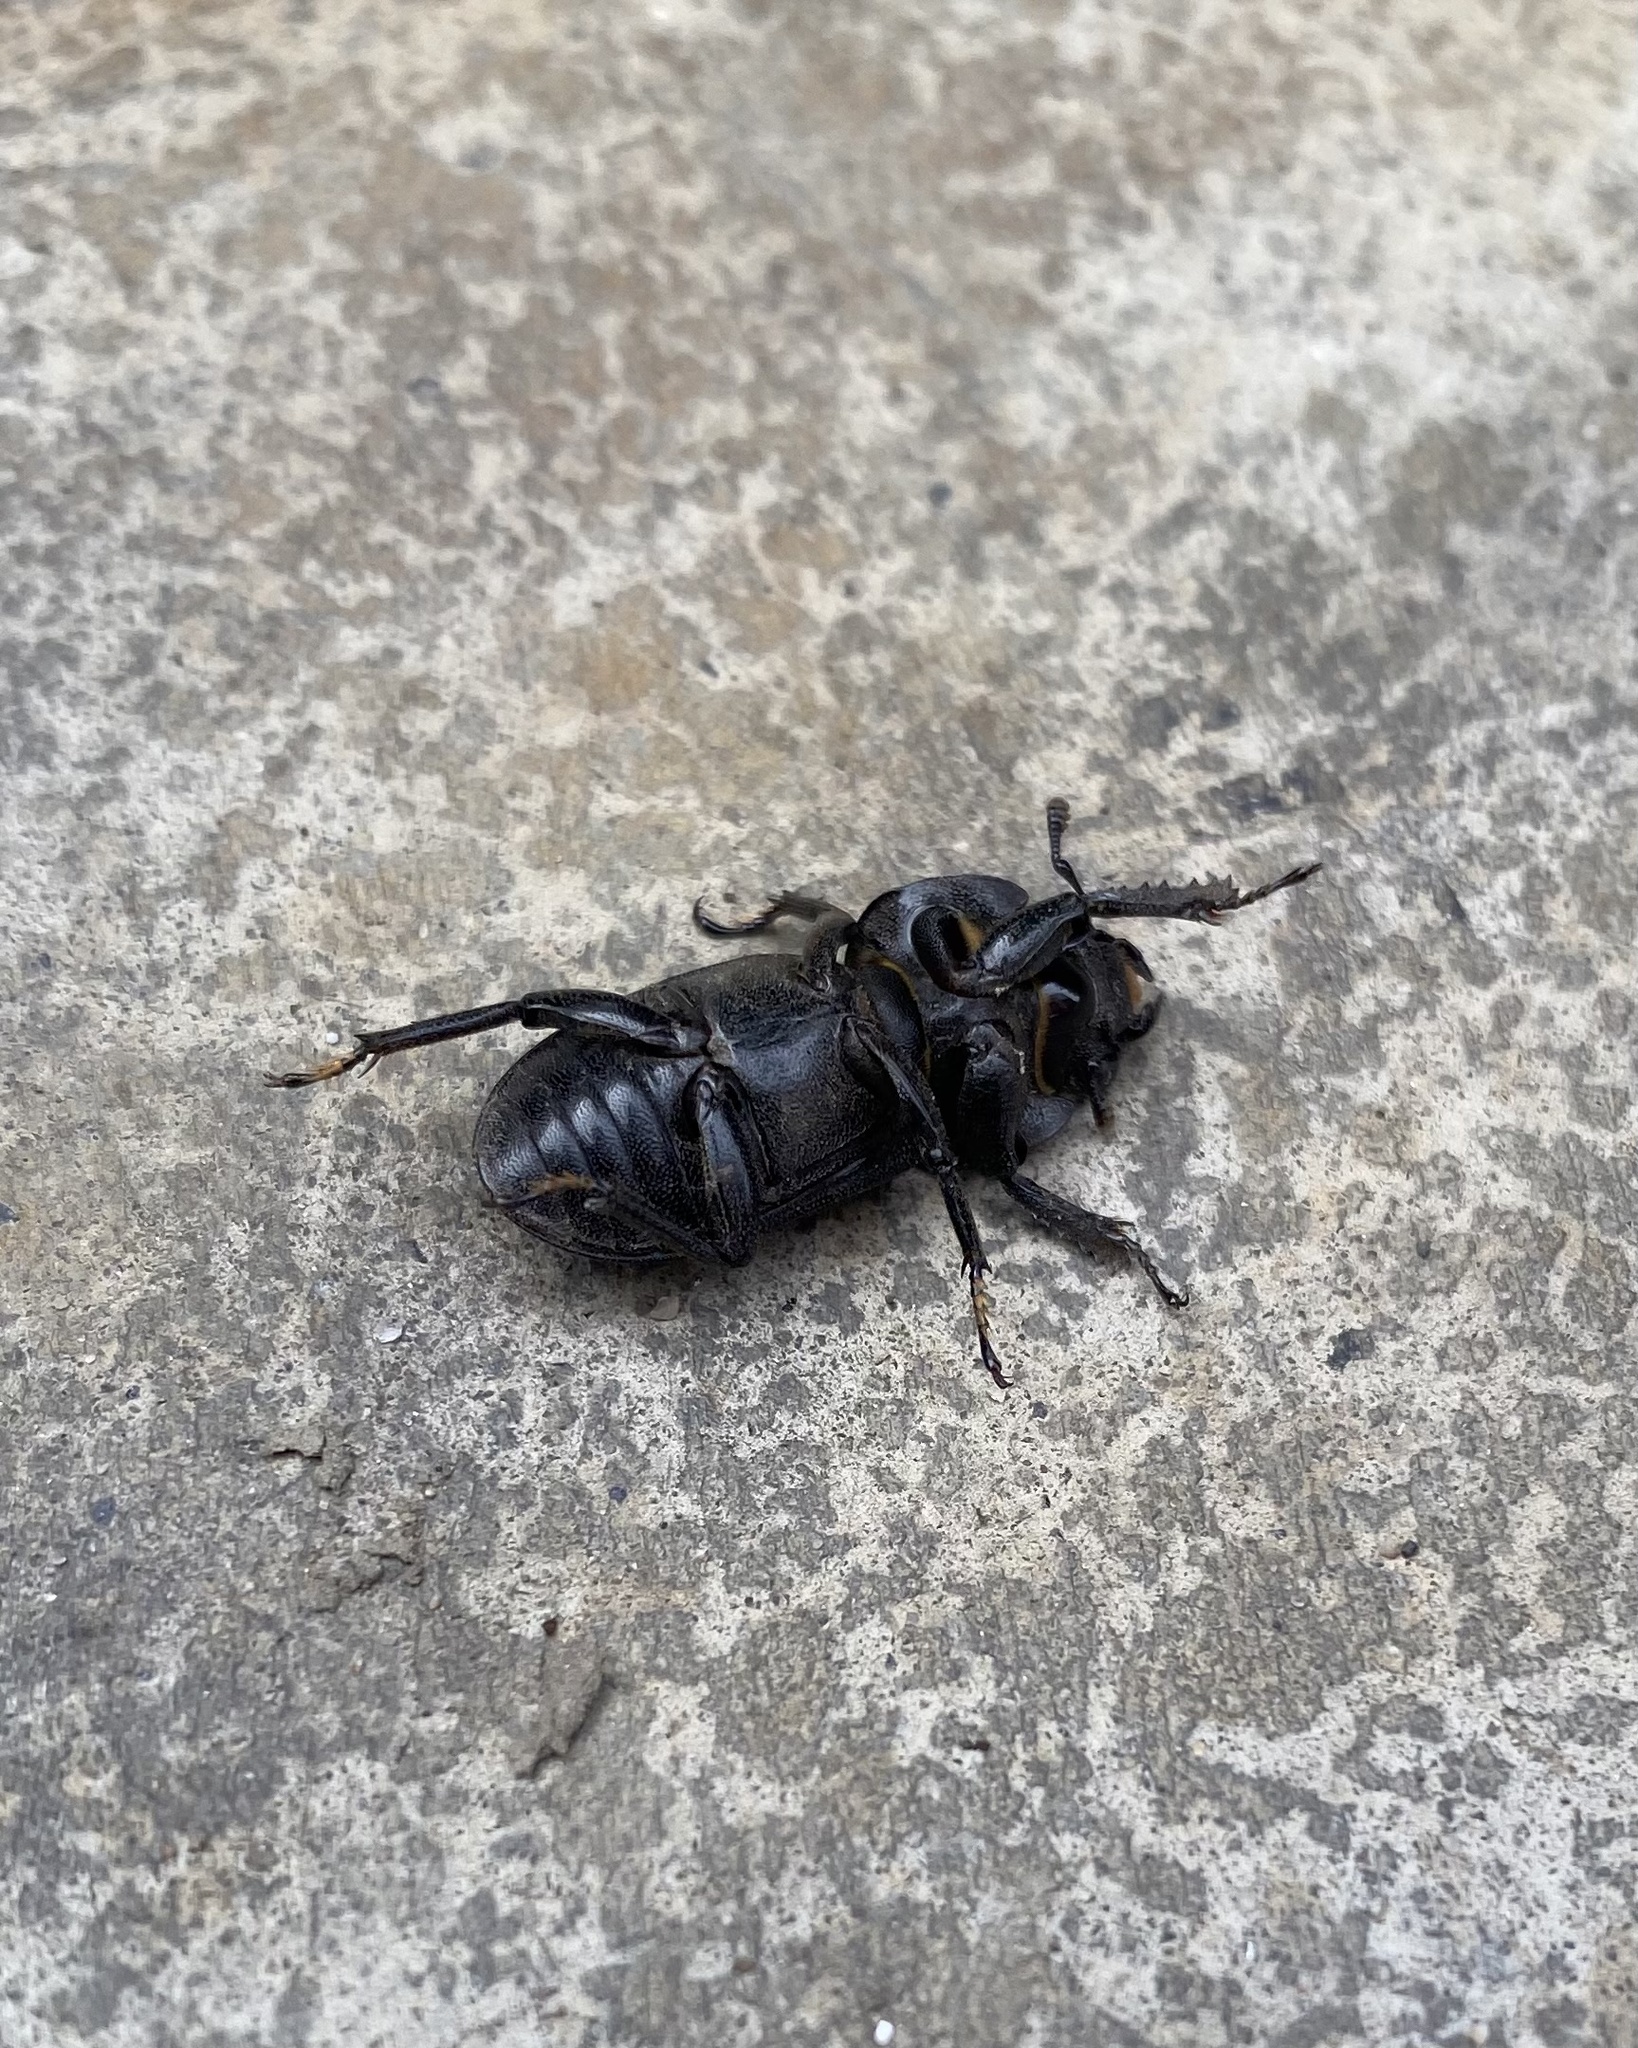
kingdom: Animalia
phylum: Arthropoda
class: Insecta
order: Coleoptera
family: Lucanidae
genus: Dorcus
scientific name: Dorcus parallelipipedus
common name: Lesser stag beetle
